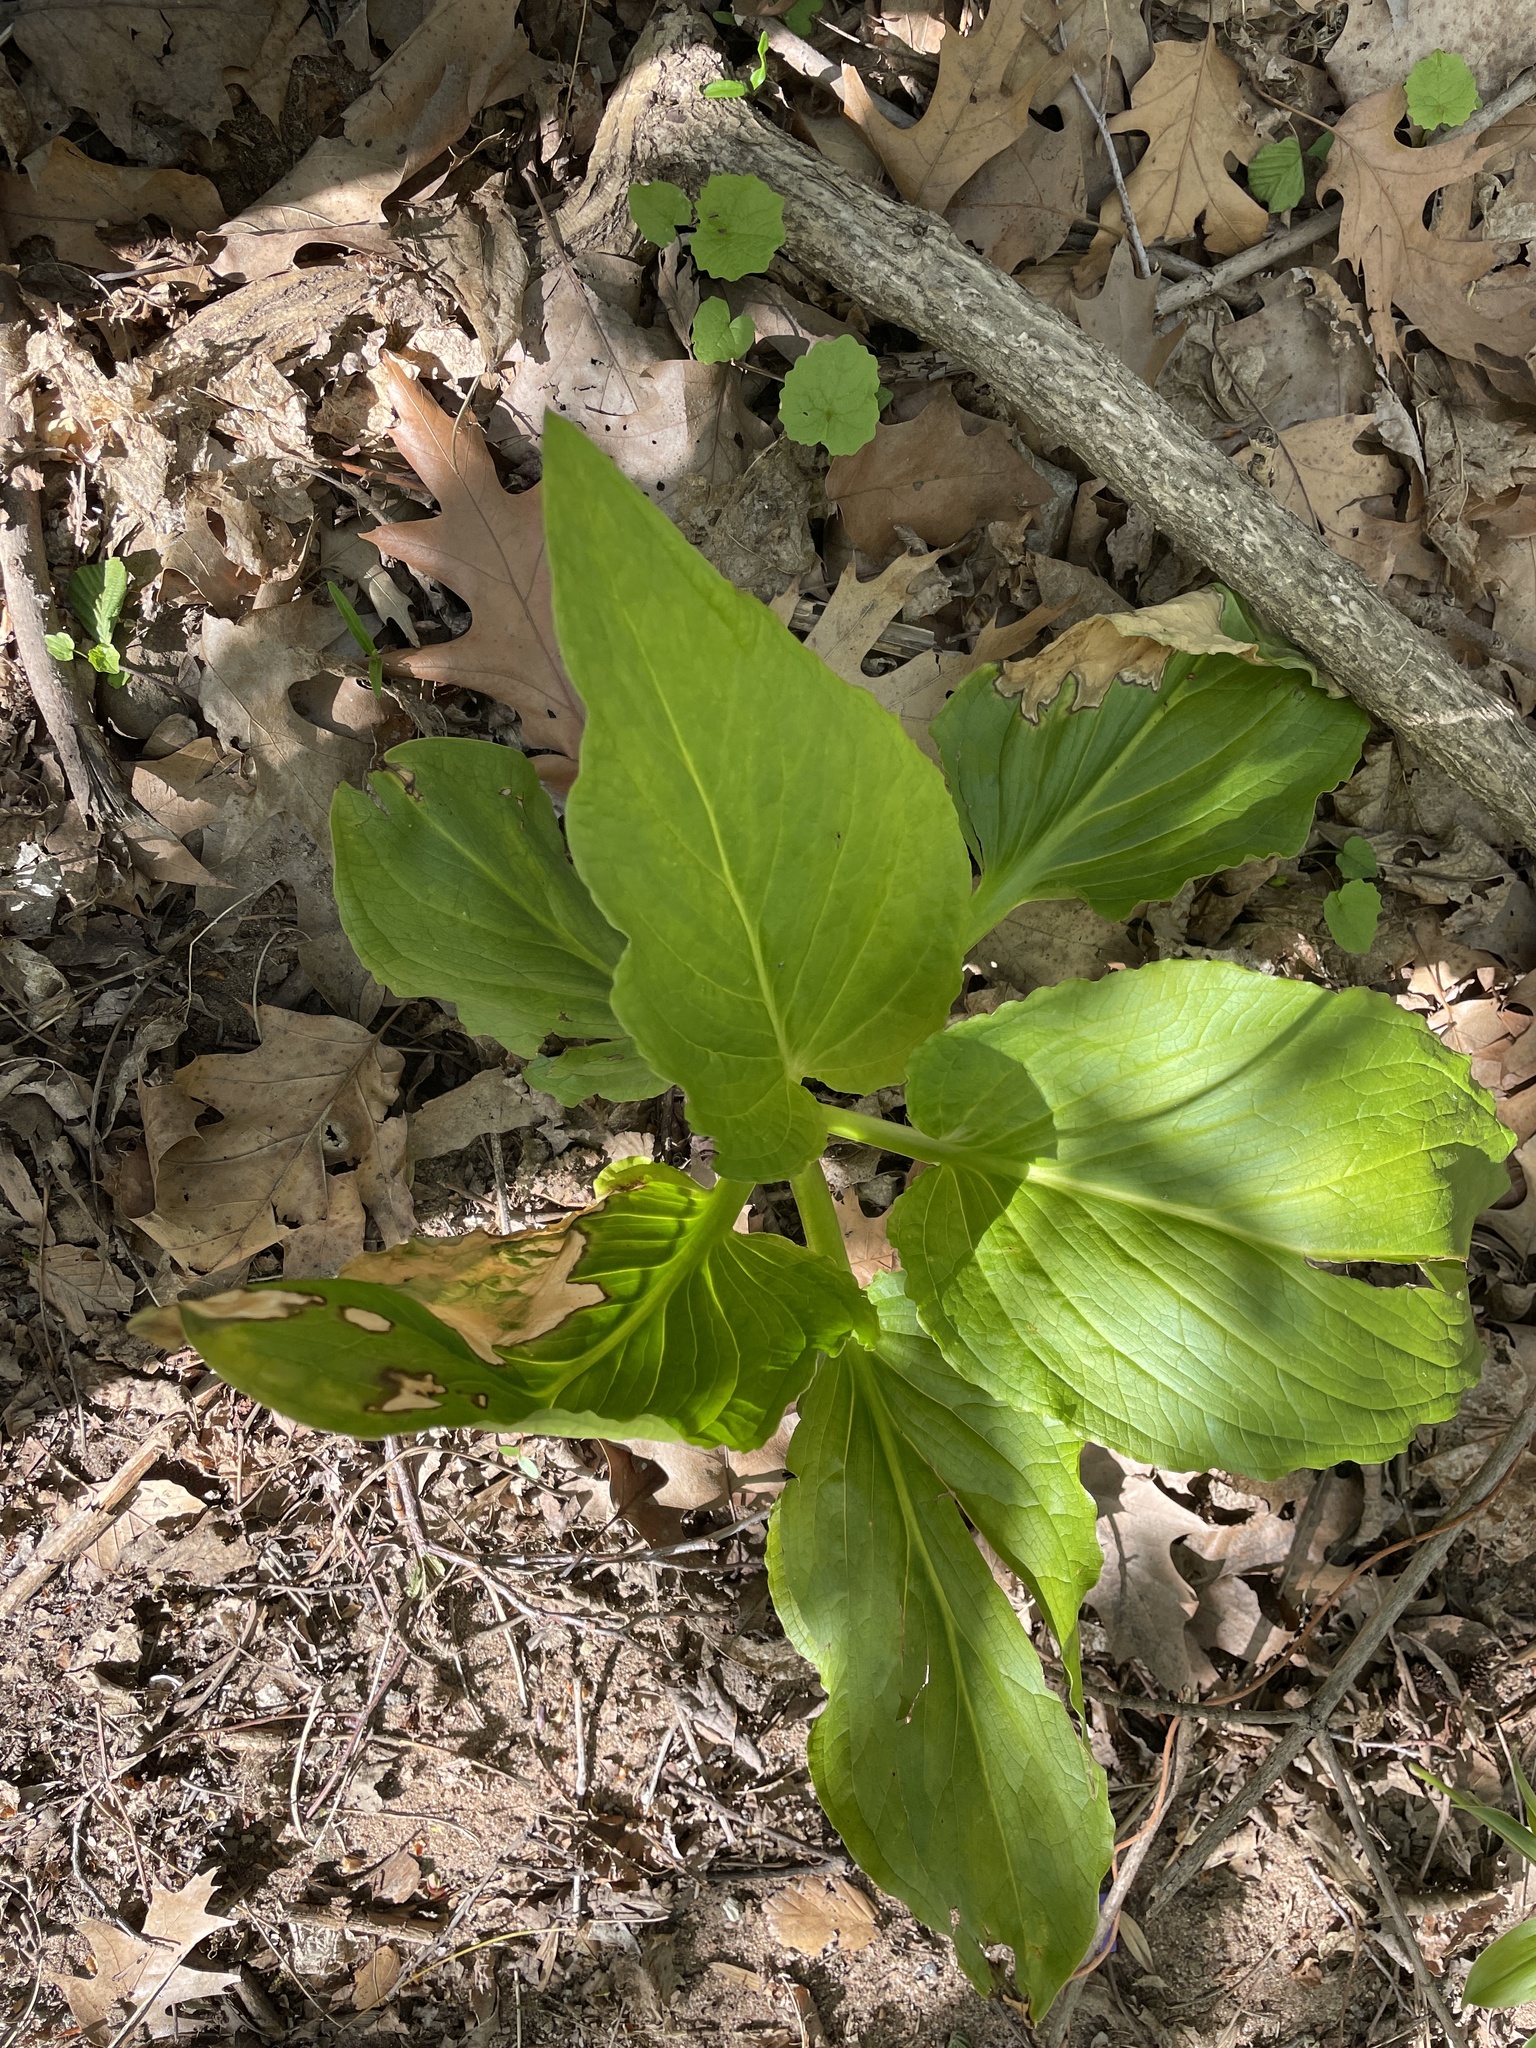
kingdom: Plantae
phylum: Tracheophyta
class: Liliopsida
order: Alismatales
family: Araceae
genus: Symplocarpus
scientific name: Symplocarpus foetidus
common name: Eastern skunk cabbage
